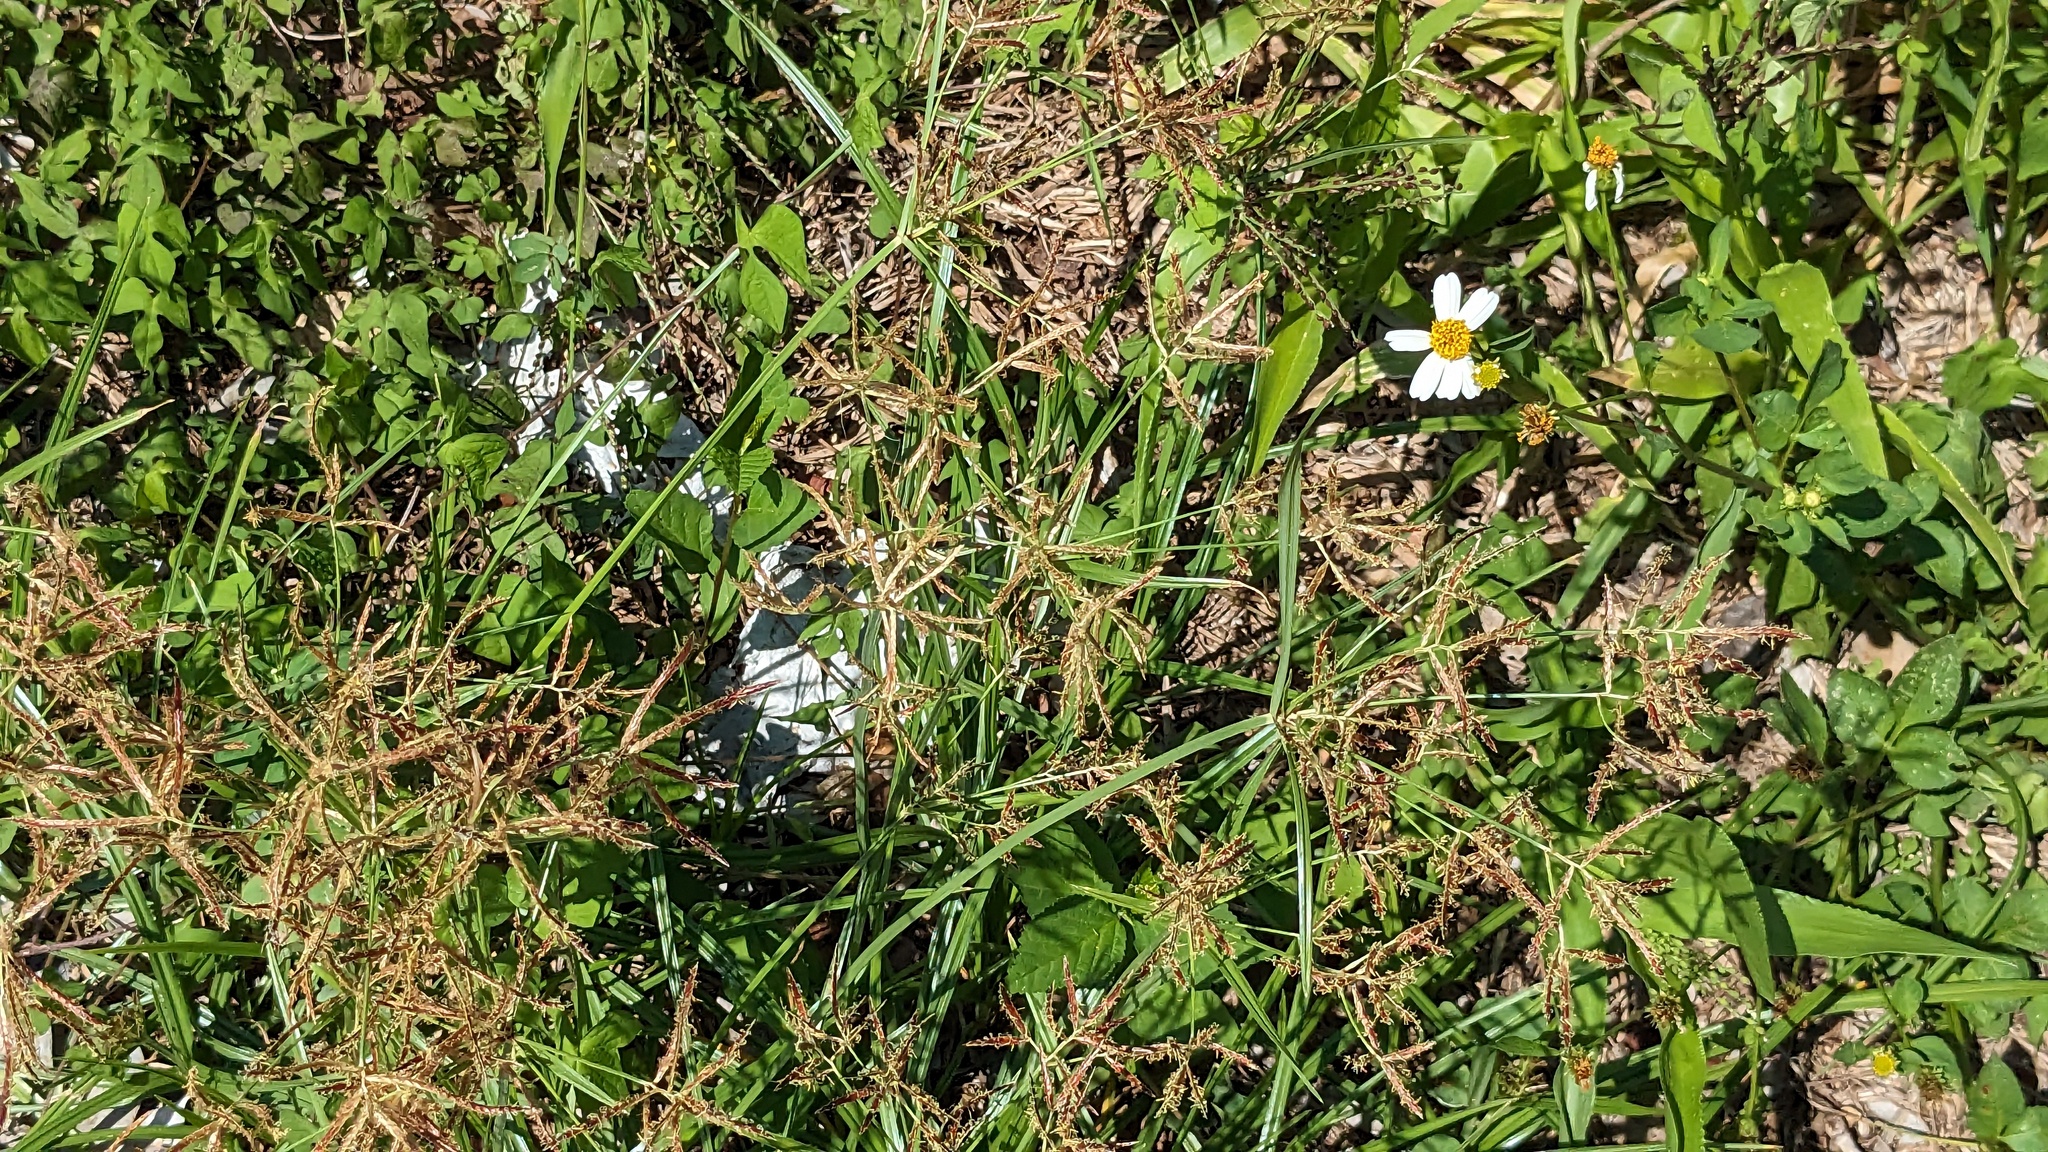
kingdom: Plantae
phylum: Tracheophyta
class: Liliopsida
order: Poales
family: Cyperaceae
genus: Cyperus
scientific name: Cyperus rotundus
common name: Nutgrass
